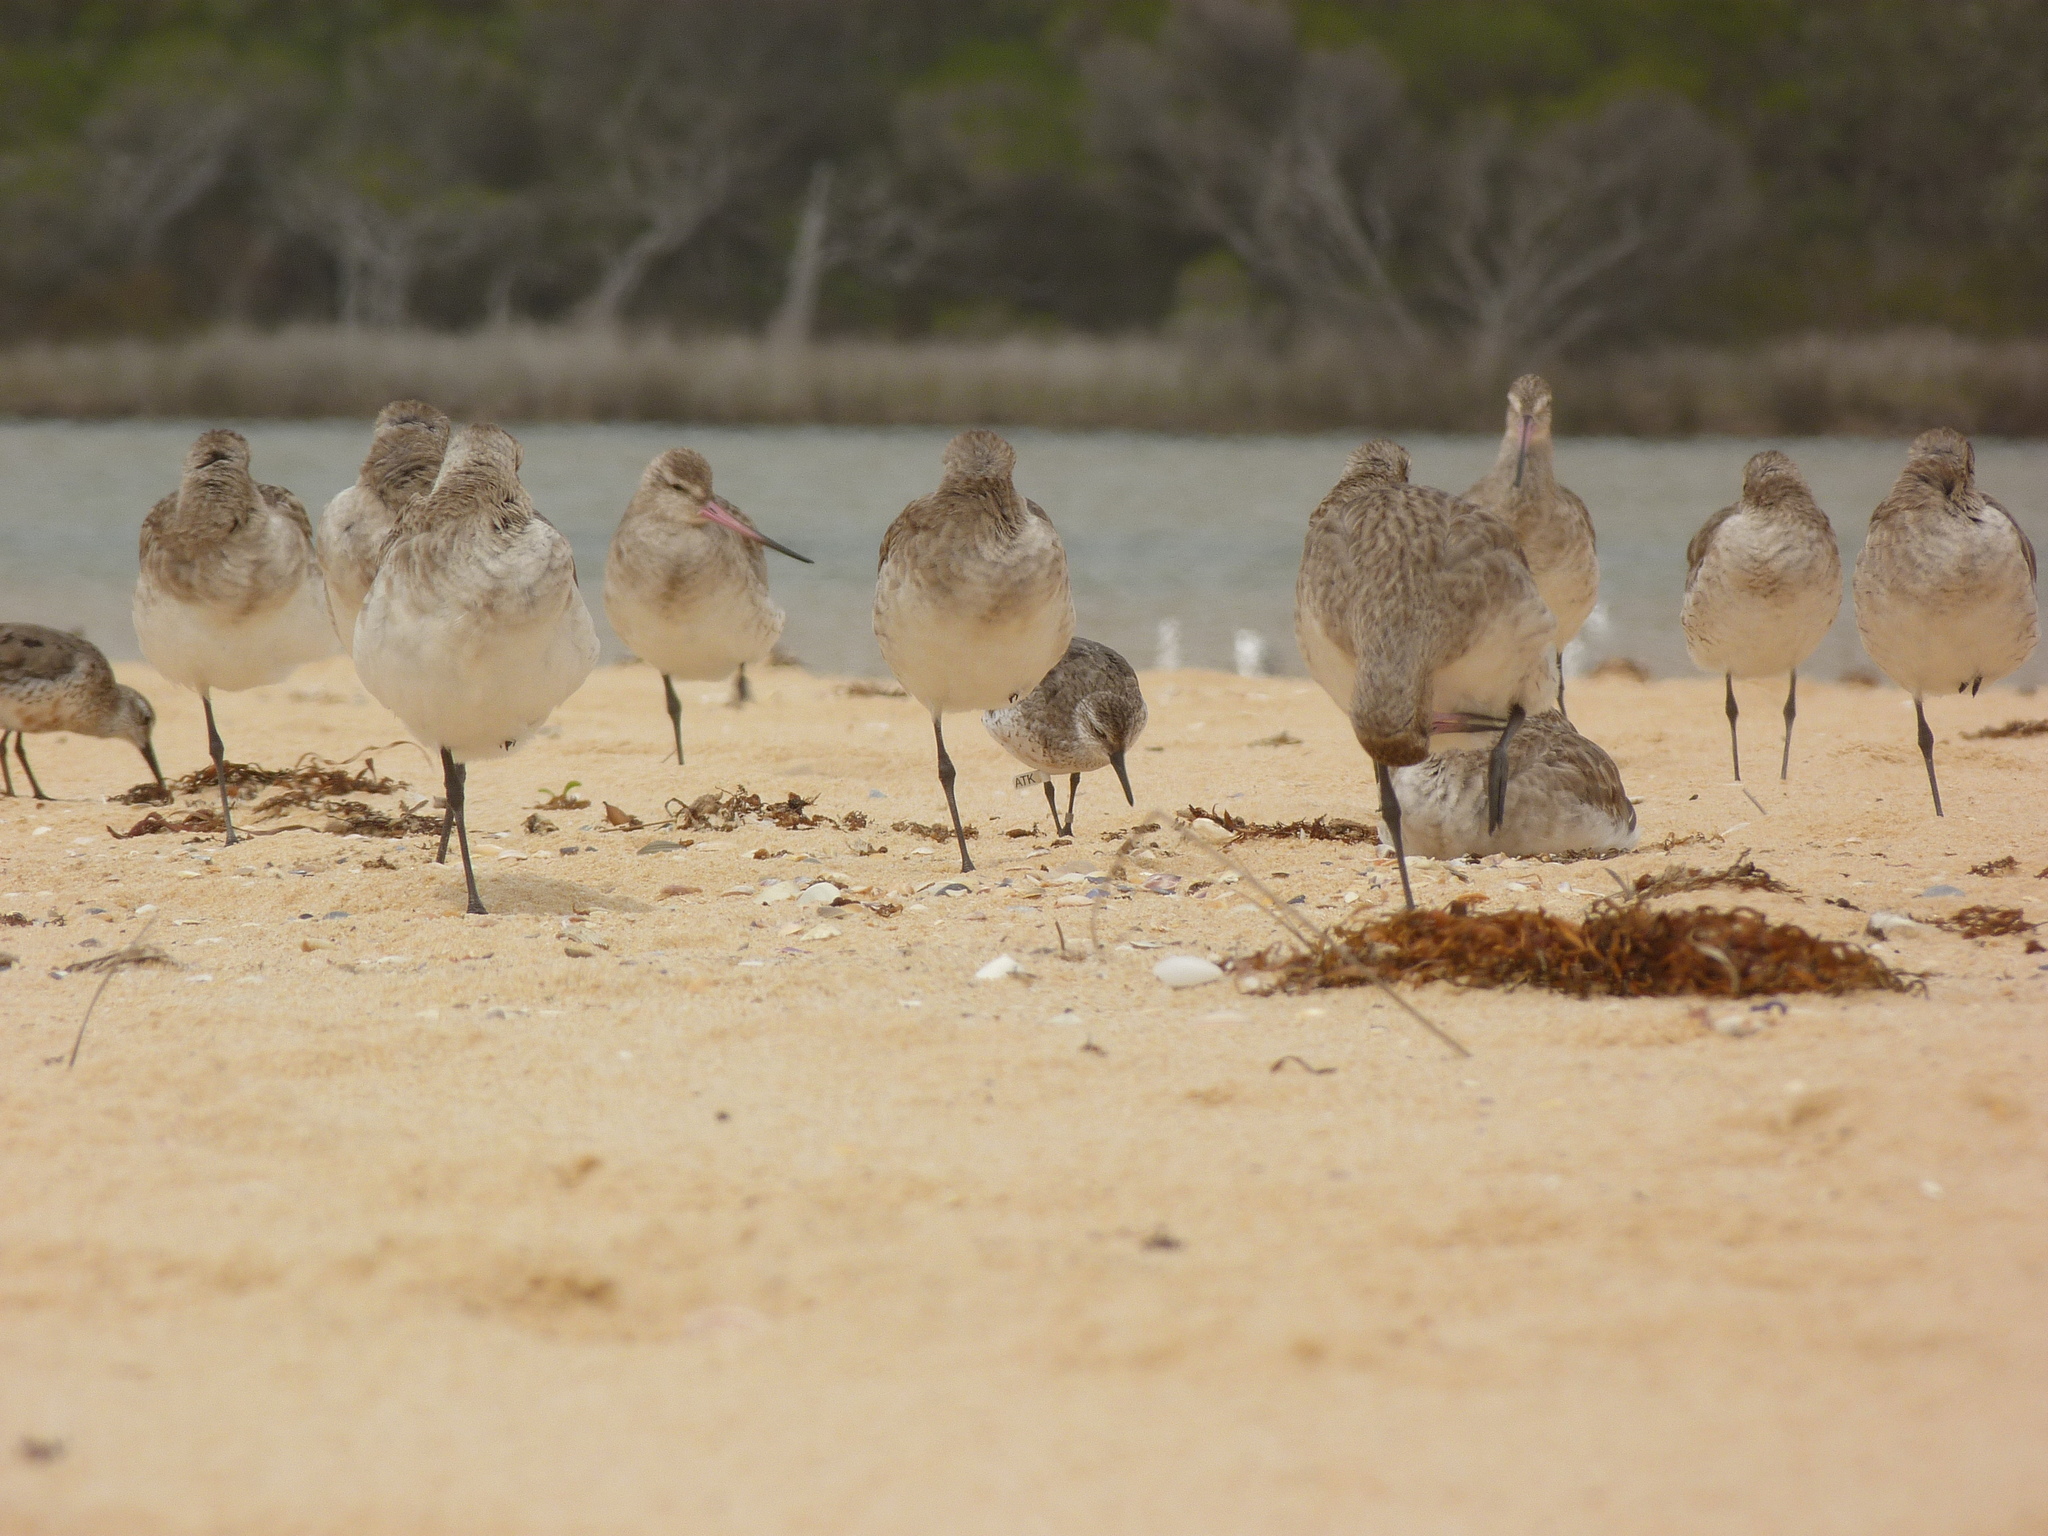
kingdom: Animalia
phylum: Chordata
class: Aves
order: Charadriiformes
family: Scolopacidae
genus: Calidris
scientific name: Calidris canutus
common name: Red knot
